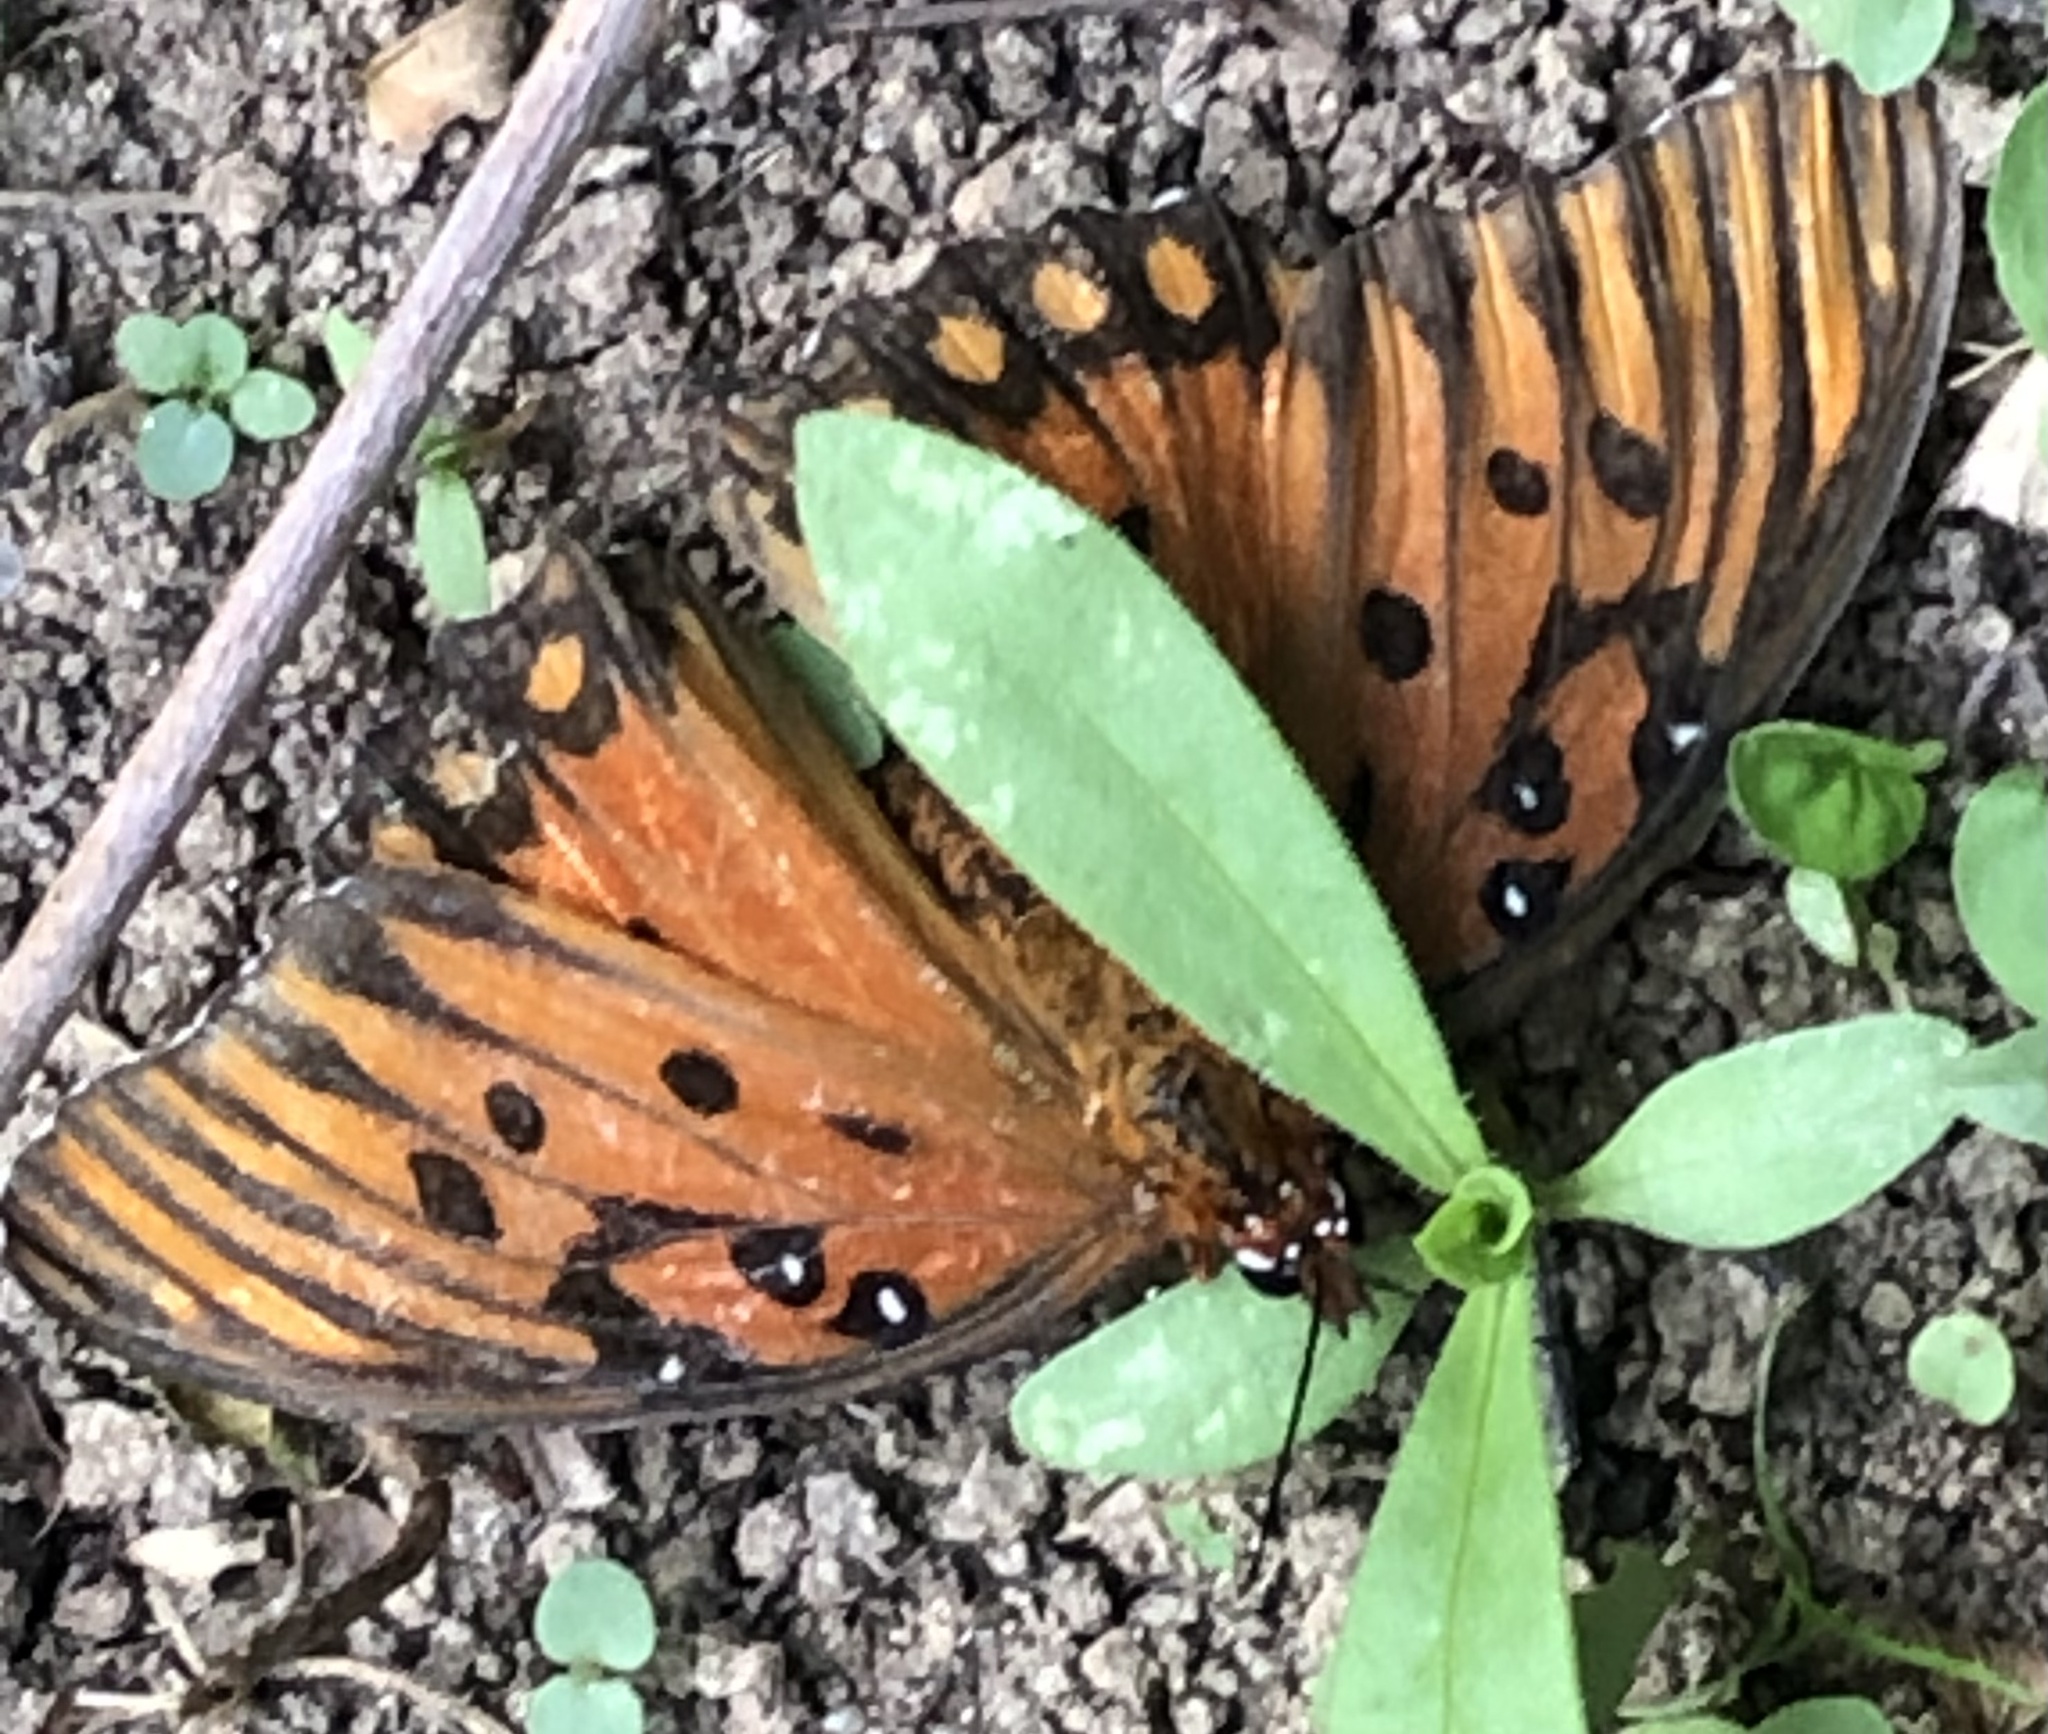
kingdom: Animalia
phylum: Arthropoda
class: Insecta
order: Lepidoptera
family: Nymphalidae
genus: Dione
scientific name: Dione vanillae
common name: Gulf fritillary
